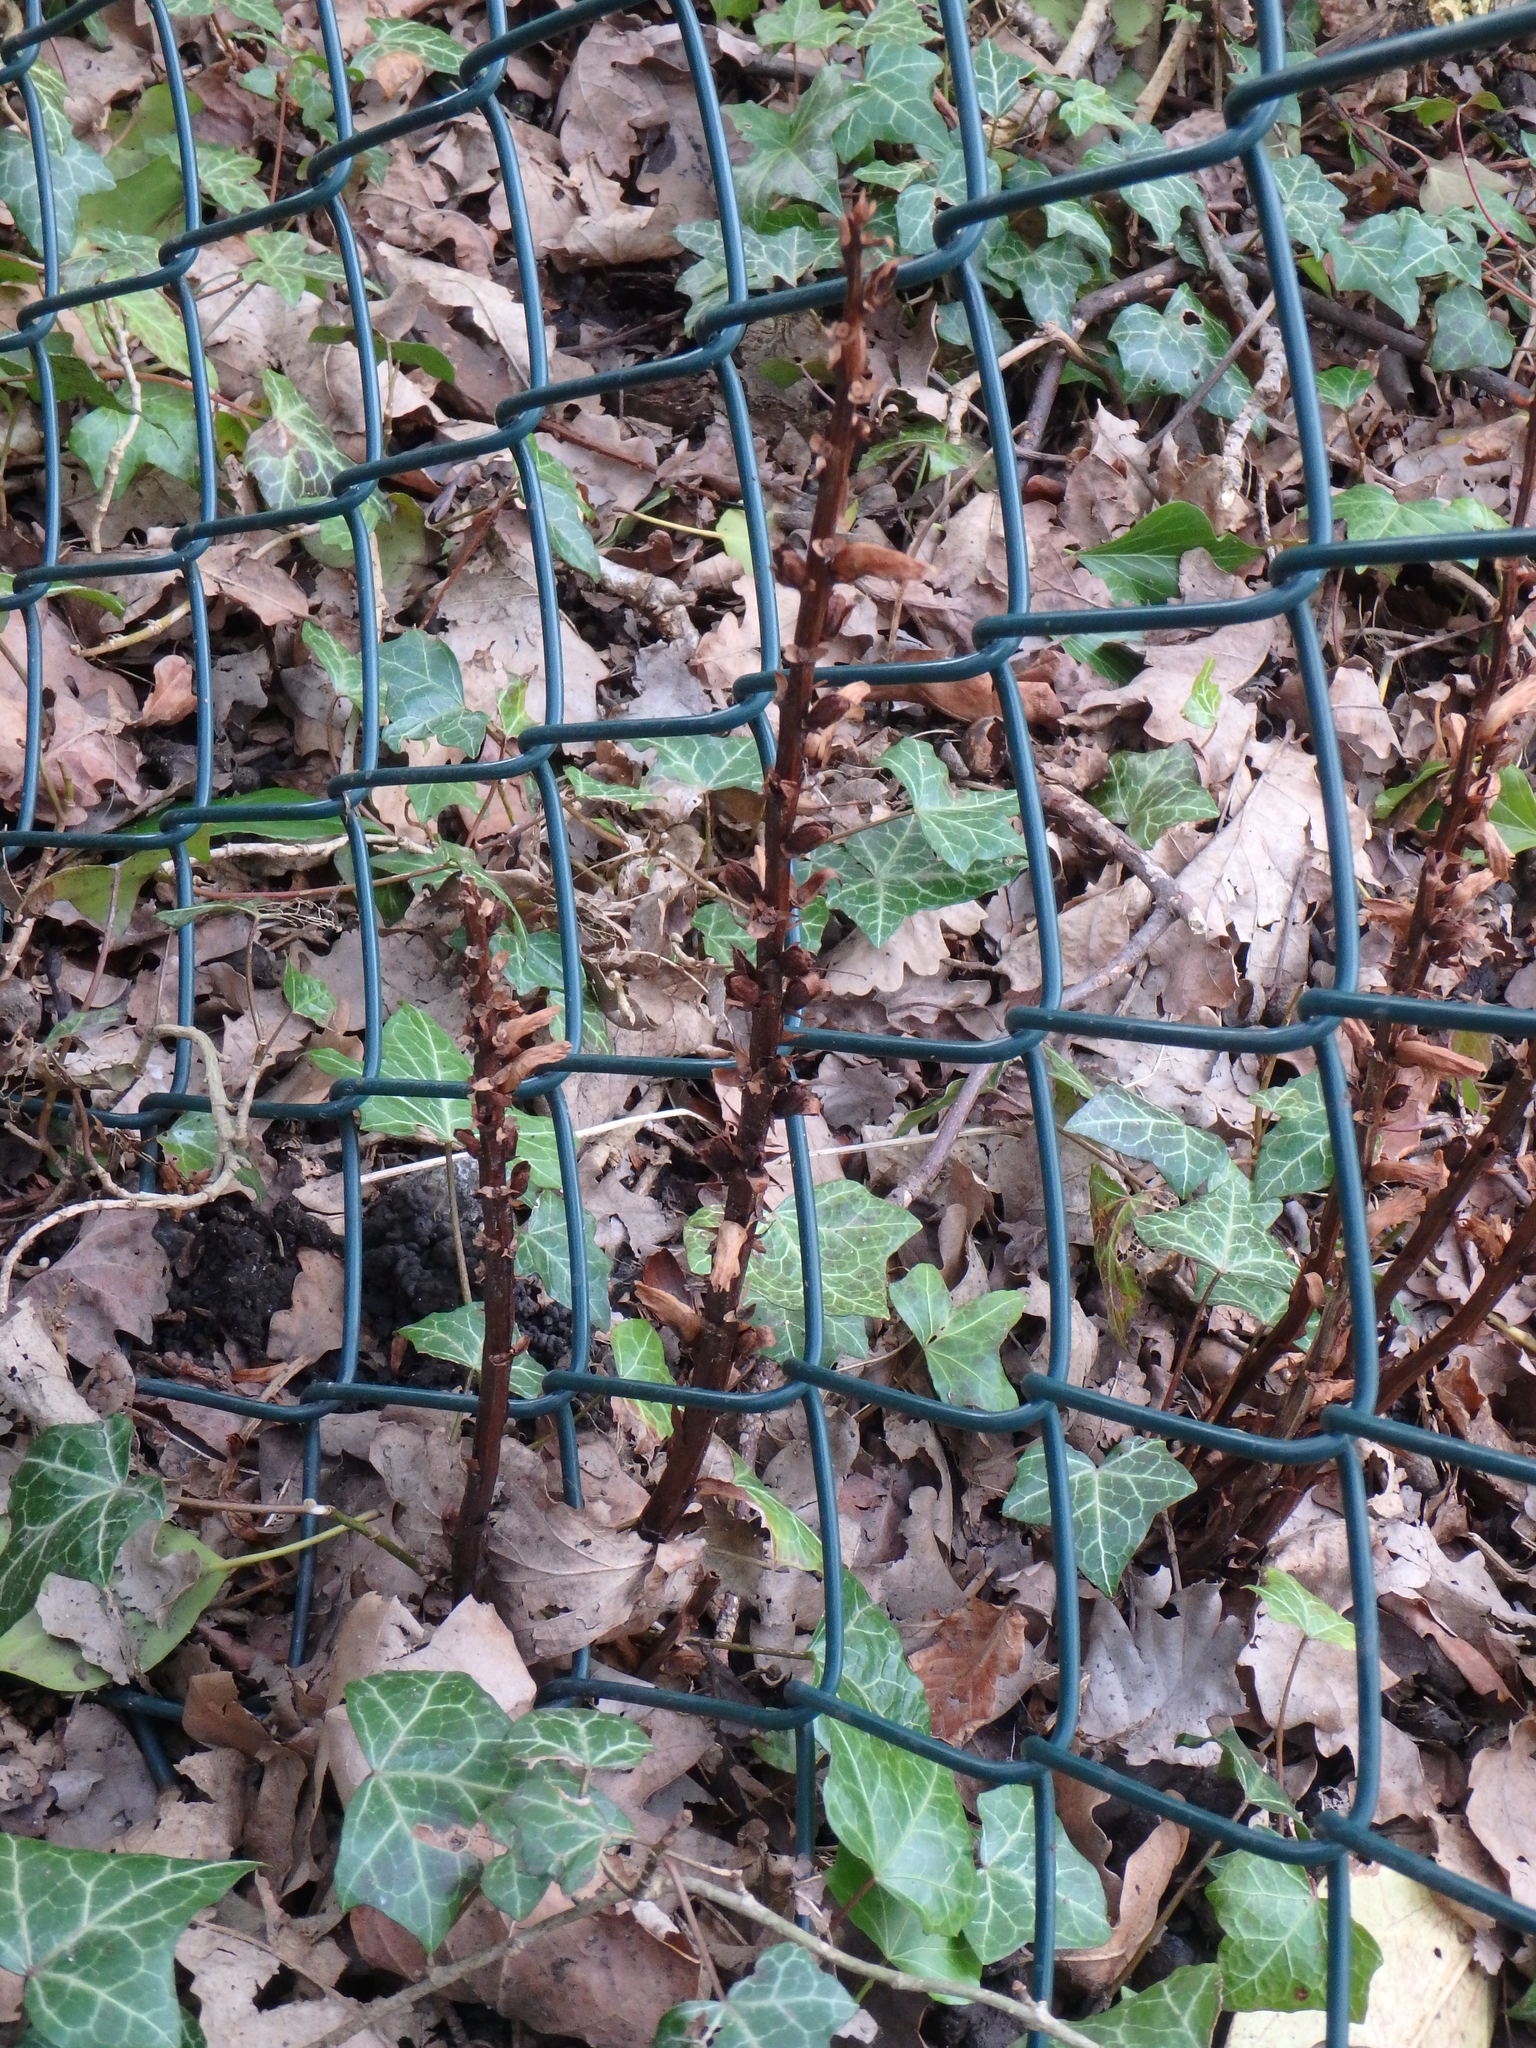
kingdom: Plantae
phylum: Tracheophyta
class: Magnoliopsida
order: Lamiales
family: Orobanchaceae
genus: Orobanche
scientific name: Orobanche hederae
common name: Ivy broomrape
